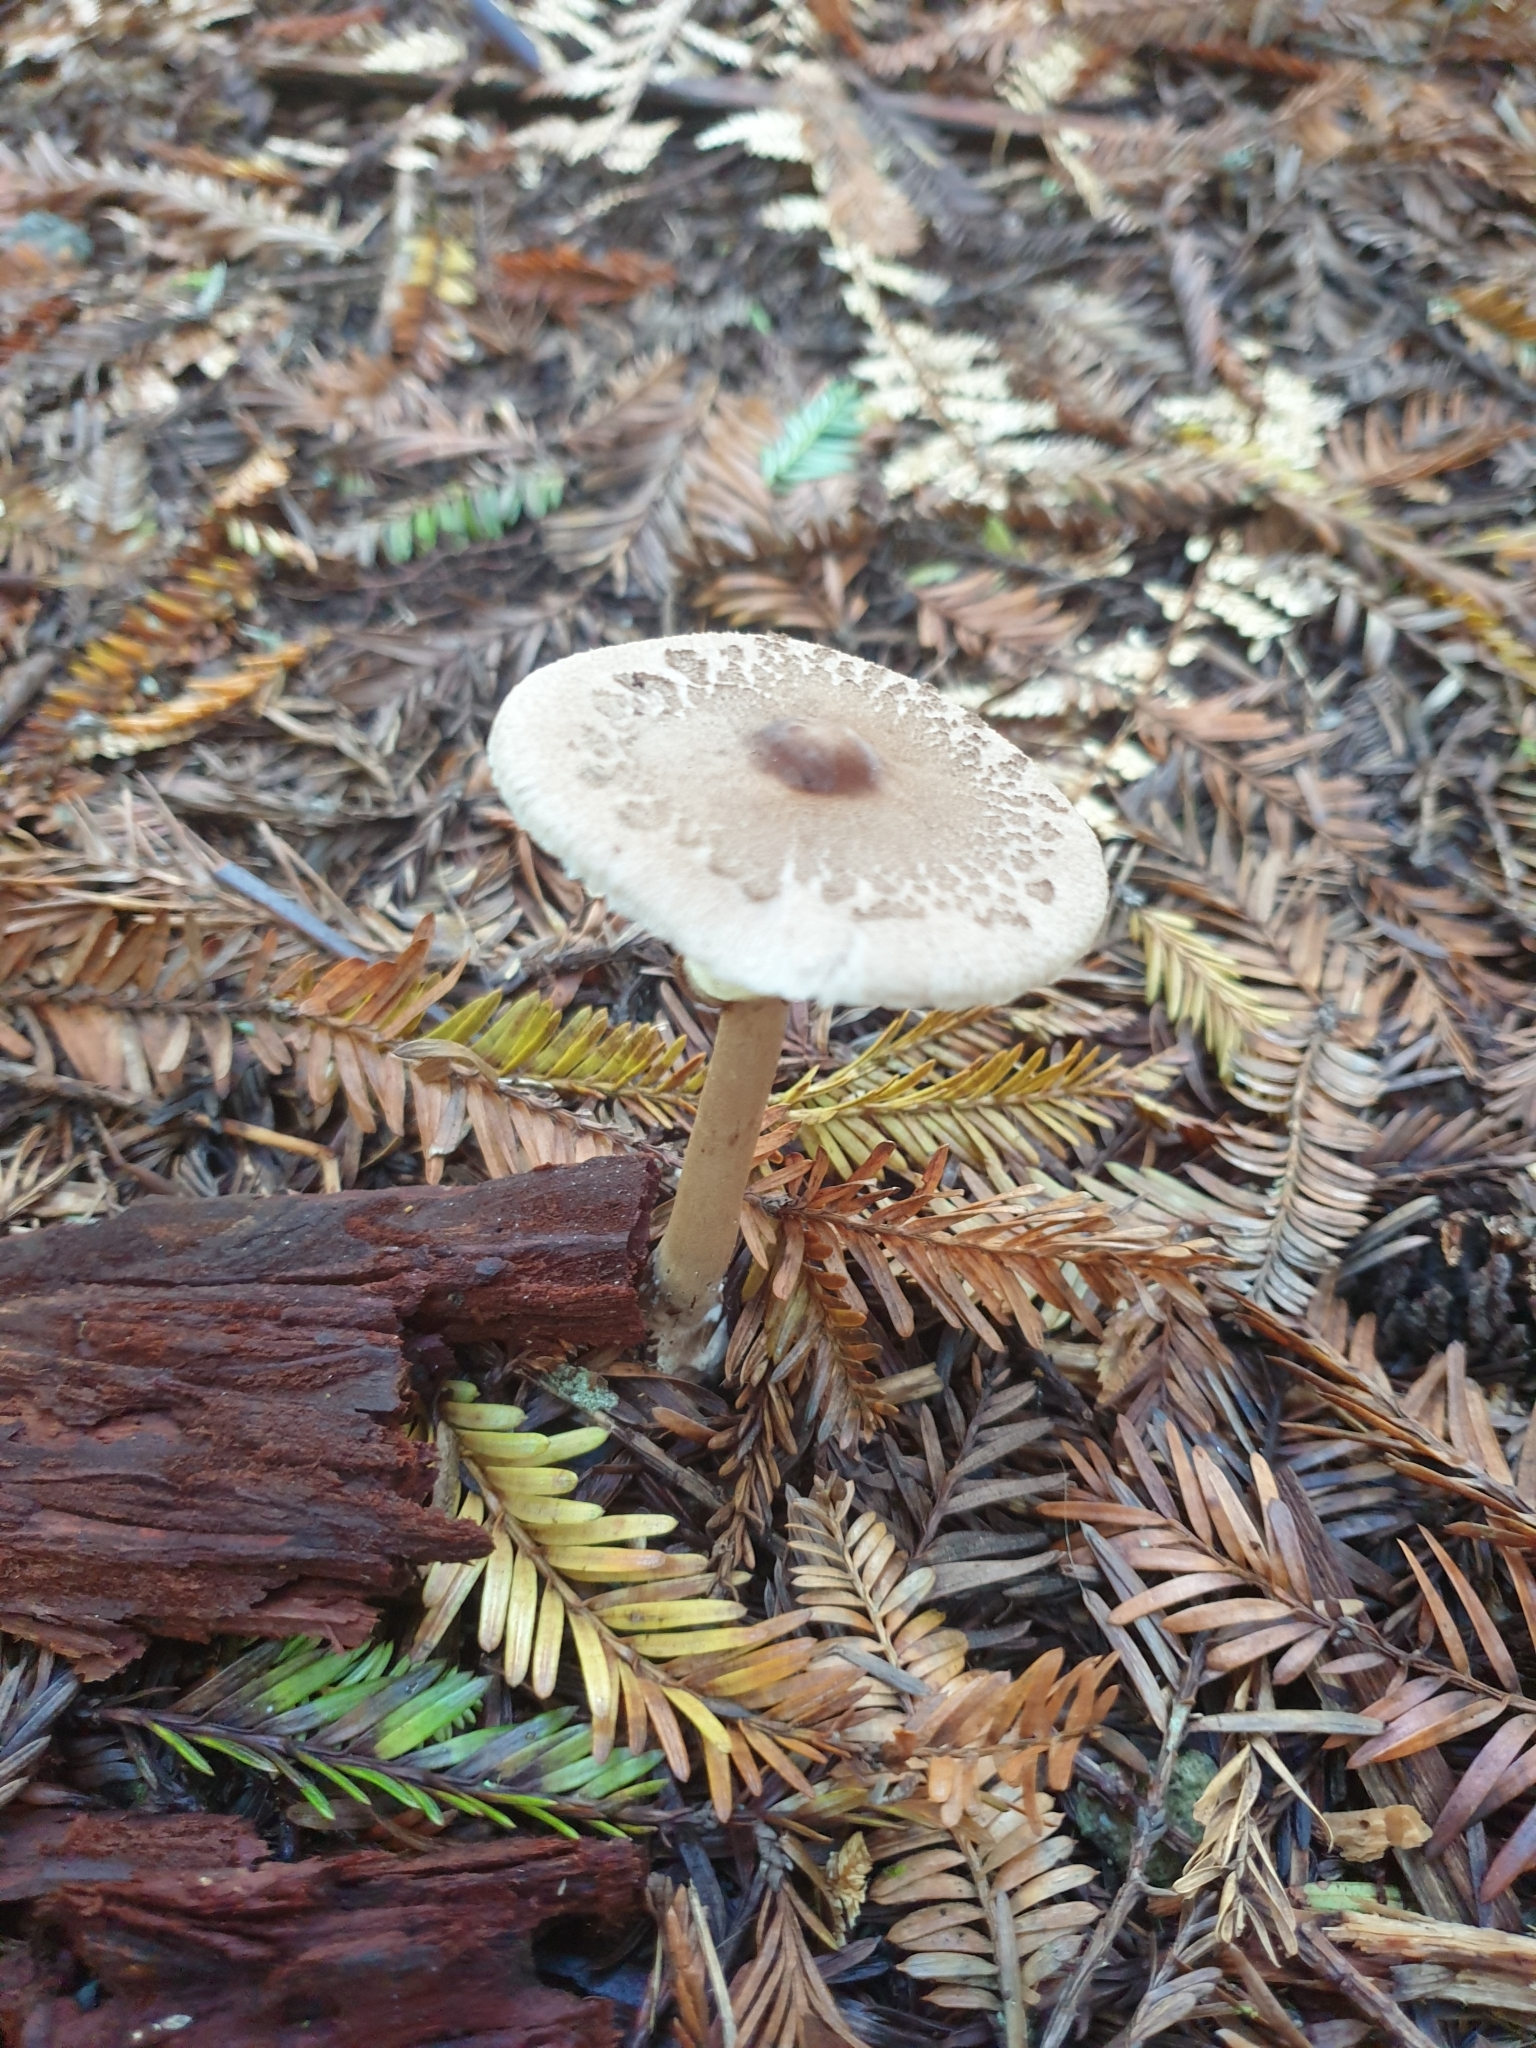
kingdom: Fungi
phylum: Basidiomycota
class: Agaricomycetes
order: Agaricales
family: Agaricaceae
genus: Macrolepiota
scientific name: Macrolepiota clelandii
